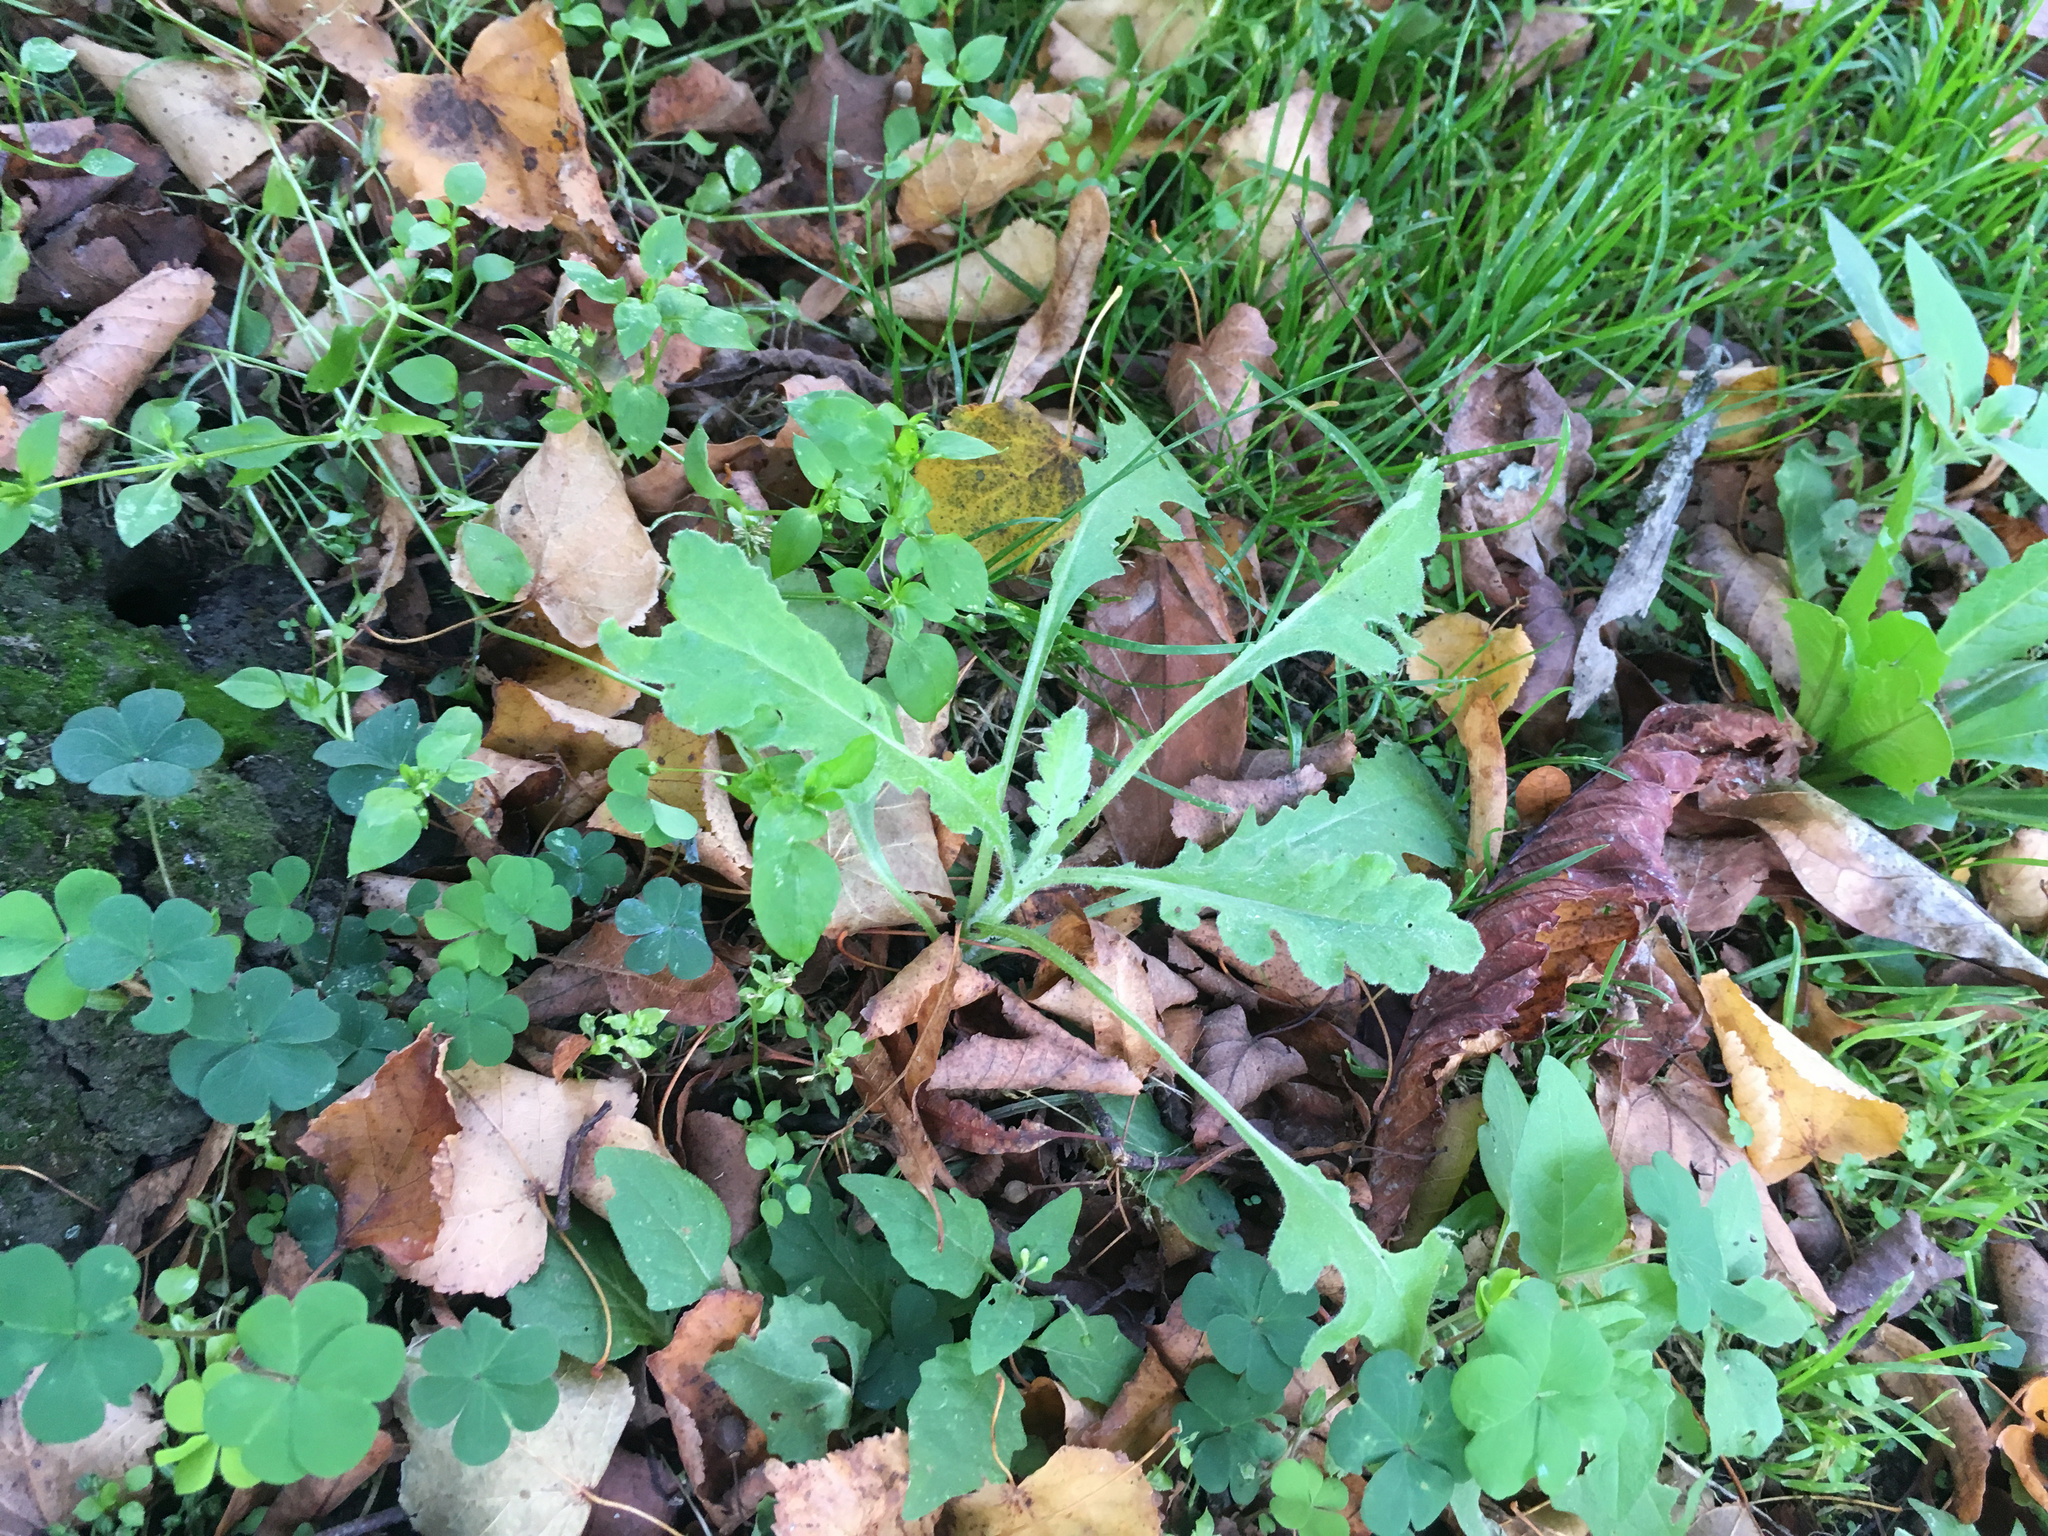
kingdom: Plantae
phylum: Tracheophyta
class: Magnoliopsida
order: Asterales
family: Asteraceae
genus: Senecio
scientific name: Senecio glomeratus
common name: Cutleaf burnweed
